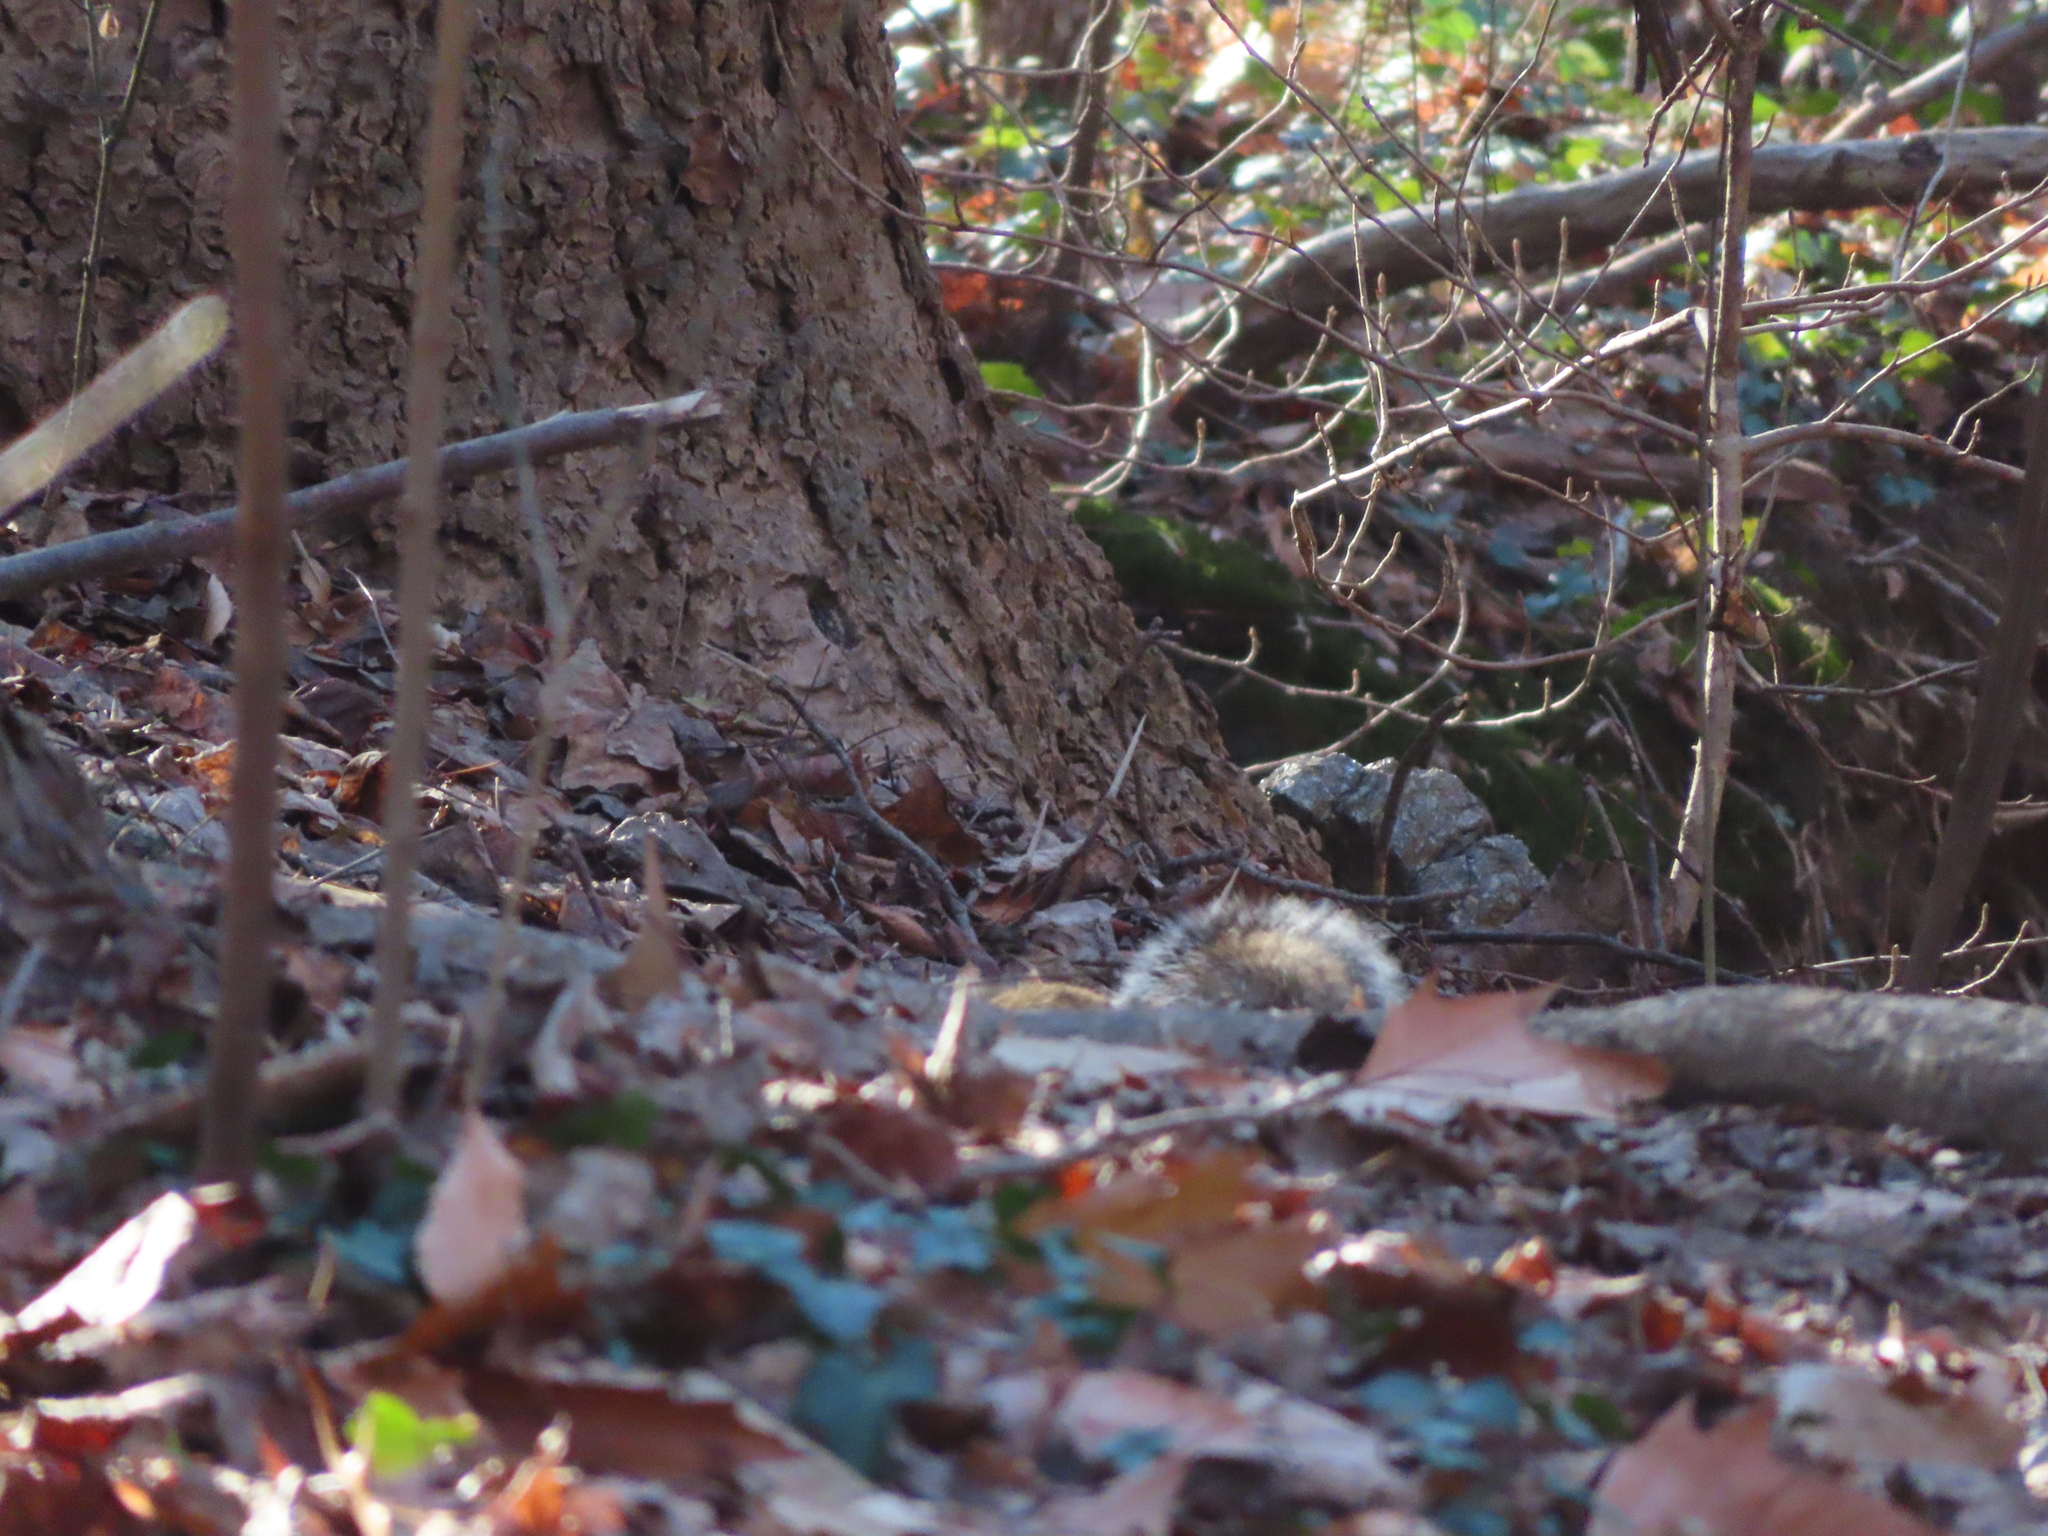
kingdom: Animalia
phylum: Chordata
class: Mammalia
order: Rodentia
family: Sciuridae
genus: Sciurus
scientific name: Sciurus carolinensis
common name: Eastern gray squirrel
